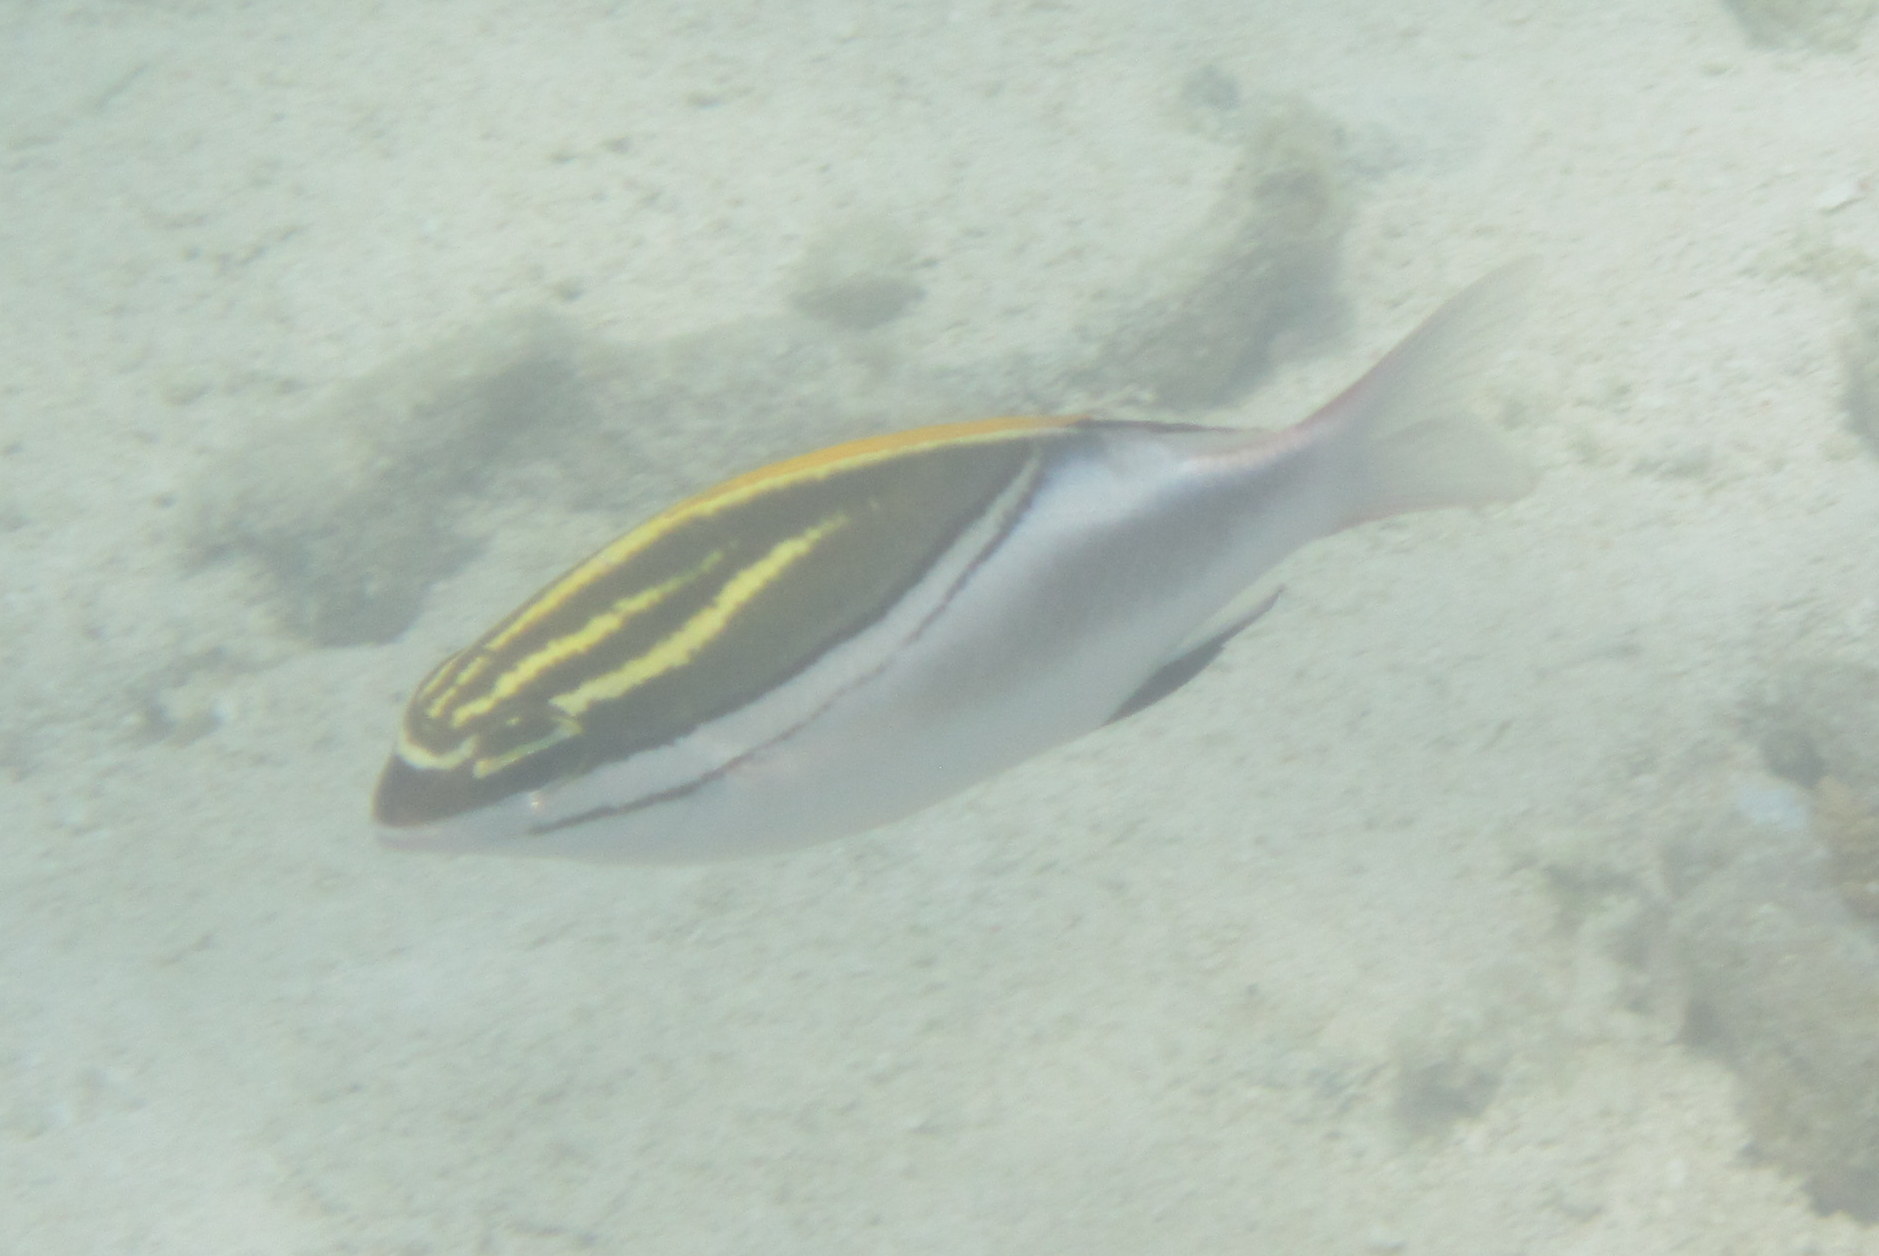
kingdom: Animalia
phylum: Chordata
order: Perciformes
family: Nemipteridae
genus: Scolopsis
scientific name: Scolopsis bilineata
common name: Two-lined monocle bream
